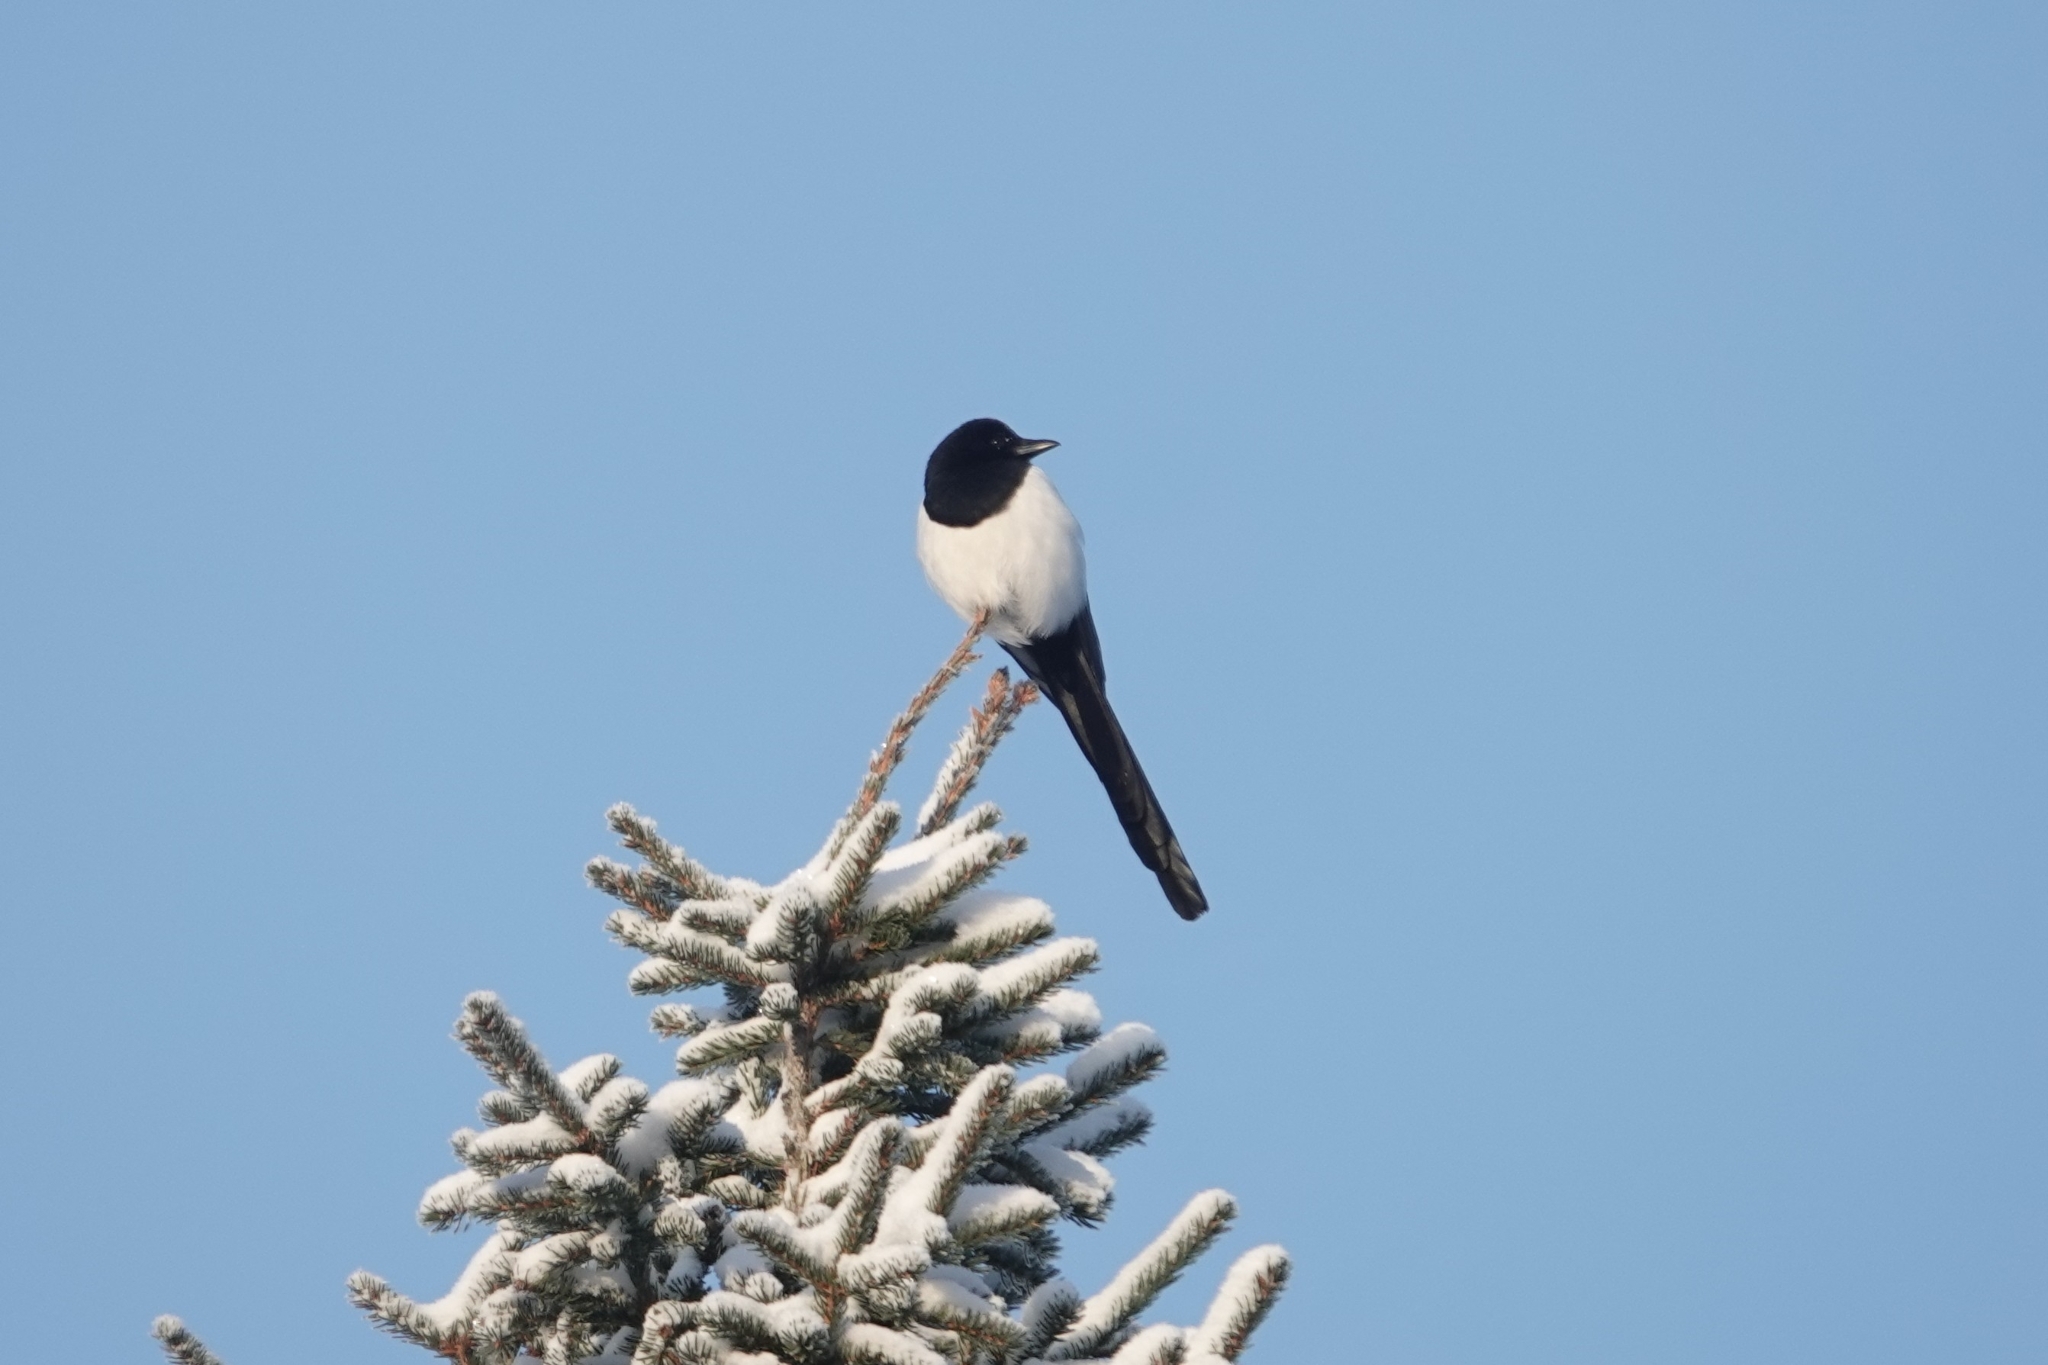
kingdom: Animalia
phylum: Chordata
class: Aves
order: Passeriformes
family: Corvidae
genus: Pica
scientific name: Pica pica
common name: Eurasian magpie
